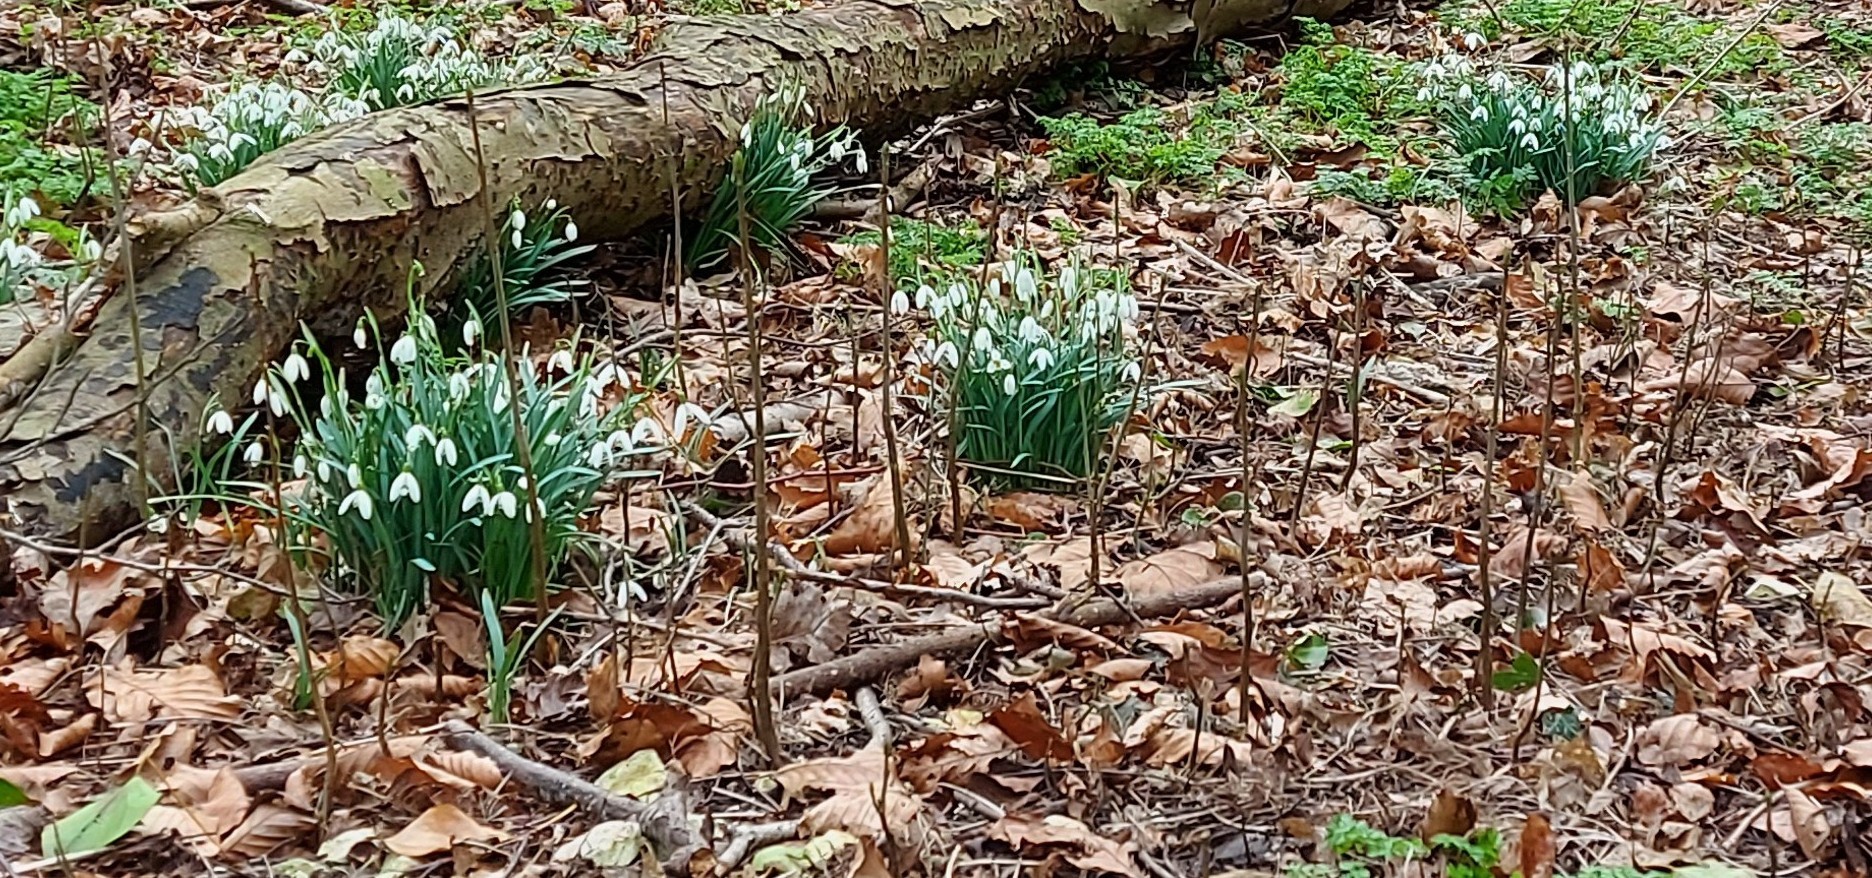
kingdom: Plantae
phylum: Tracheophyta
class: Liliopsida
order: Asparagales
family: Amaryllidaceae
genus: Galanthus
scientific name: Galanthus nivalis
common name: Snowdrop
